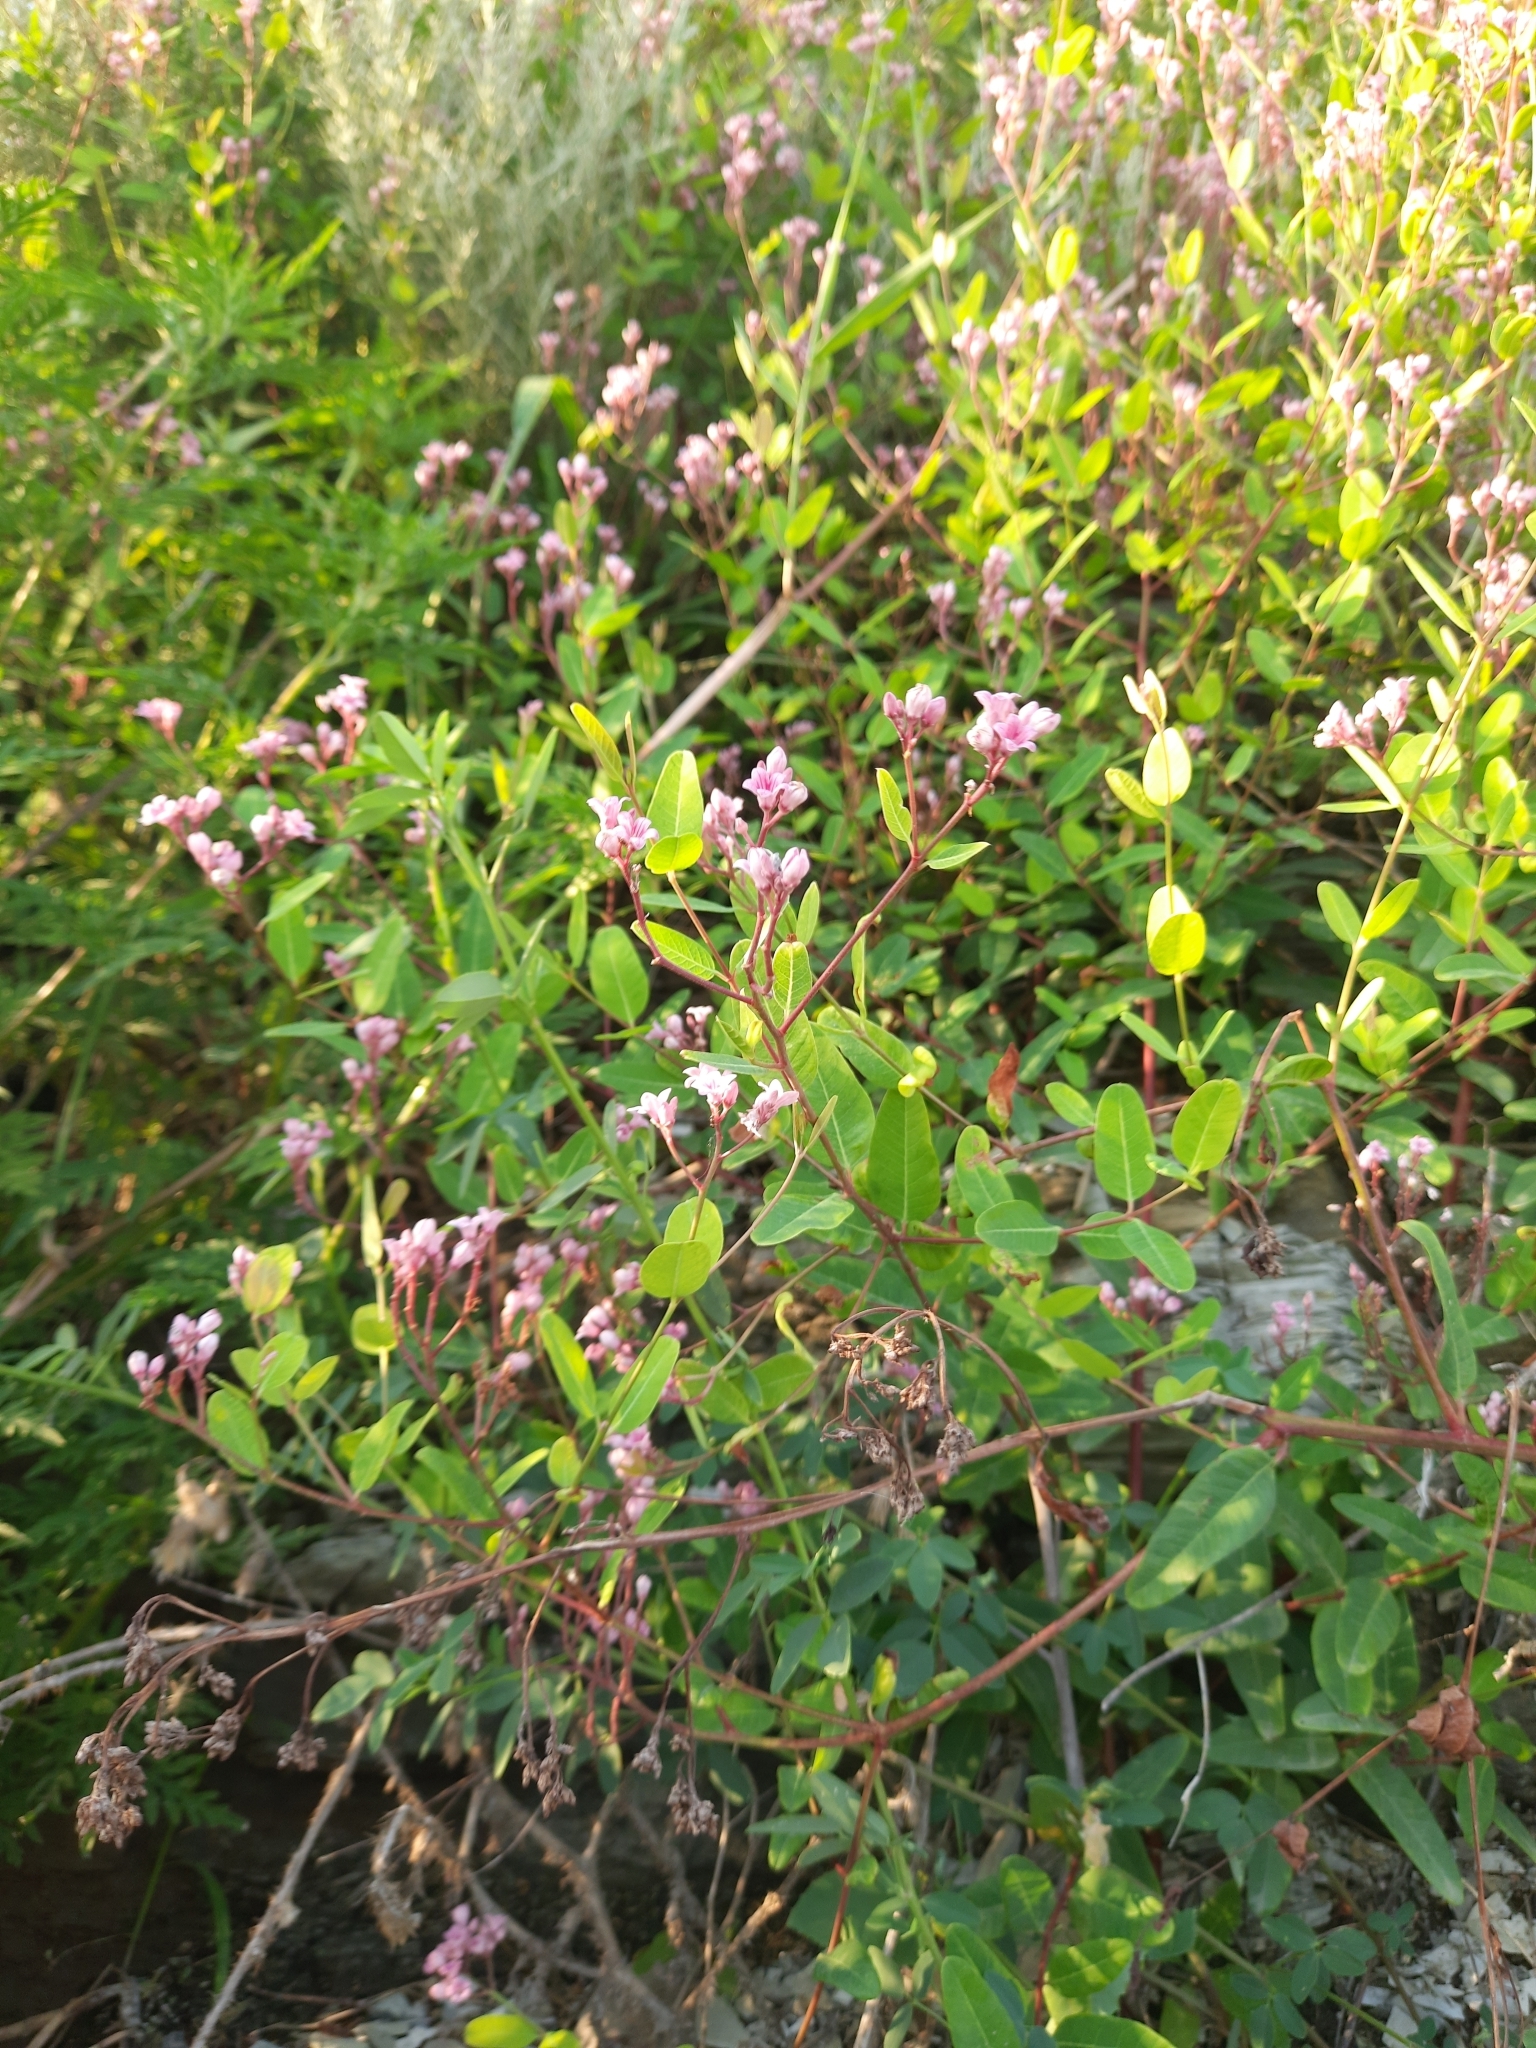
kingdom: Plantae
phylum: Tracheophyta
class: Magnoliopsida
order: Gentianales
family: Apocynaceae
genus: Poacynum
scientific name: Poacynum venetum
